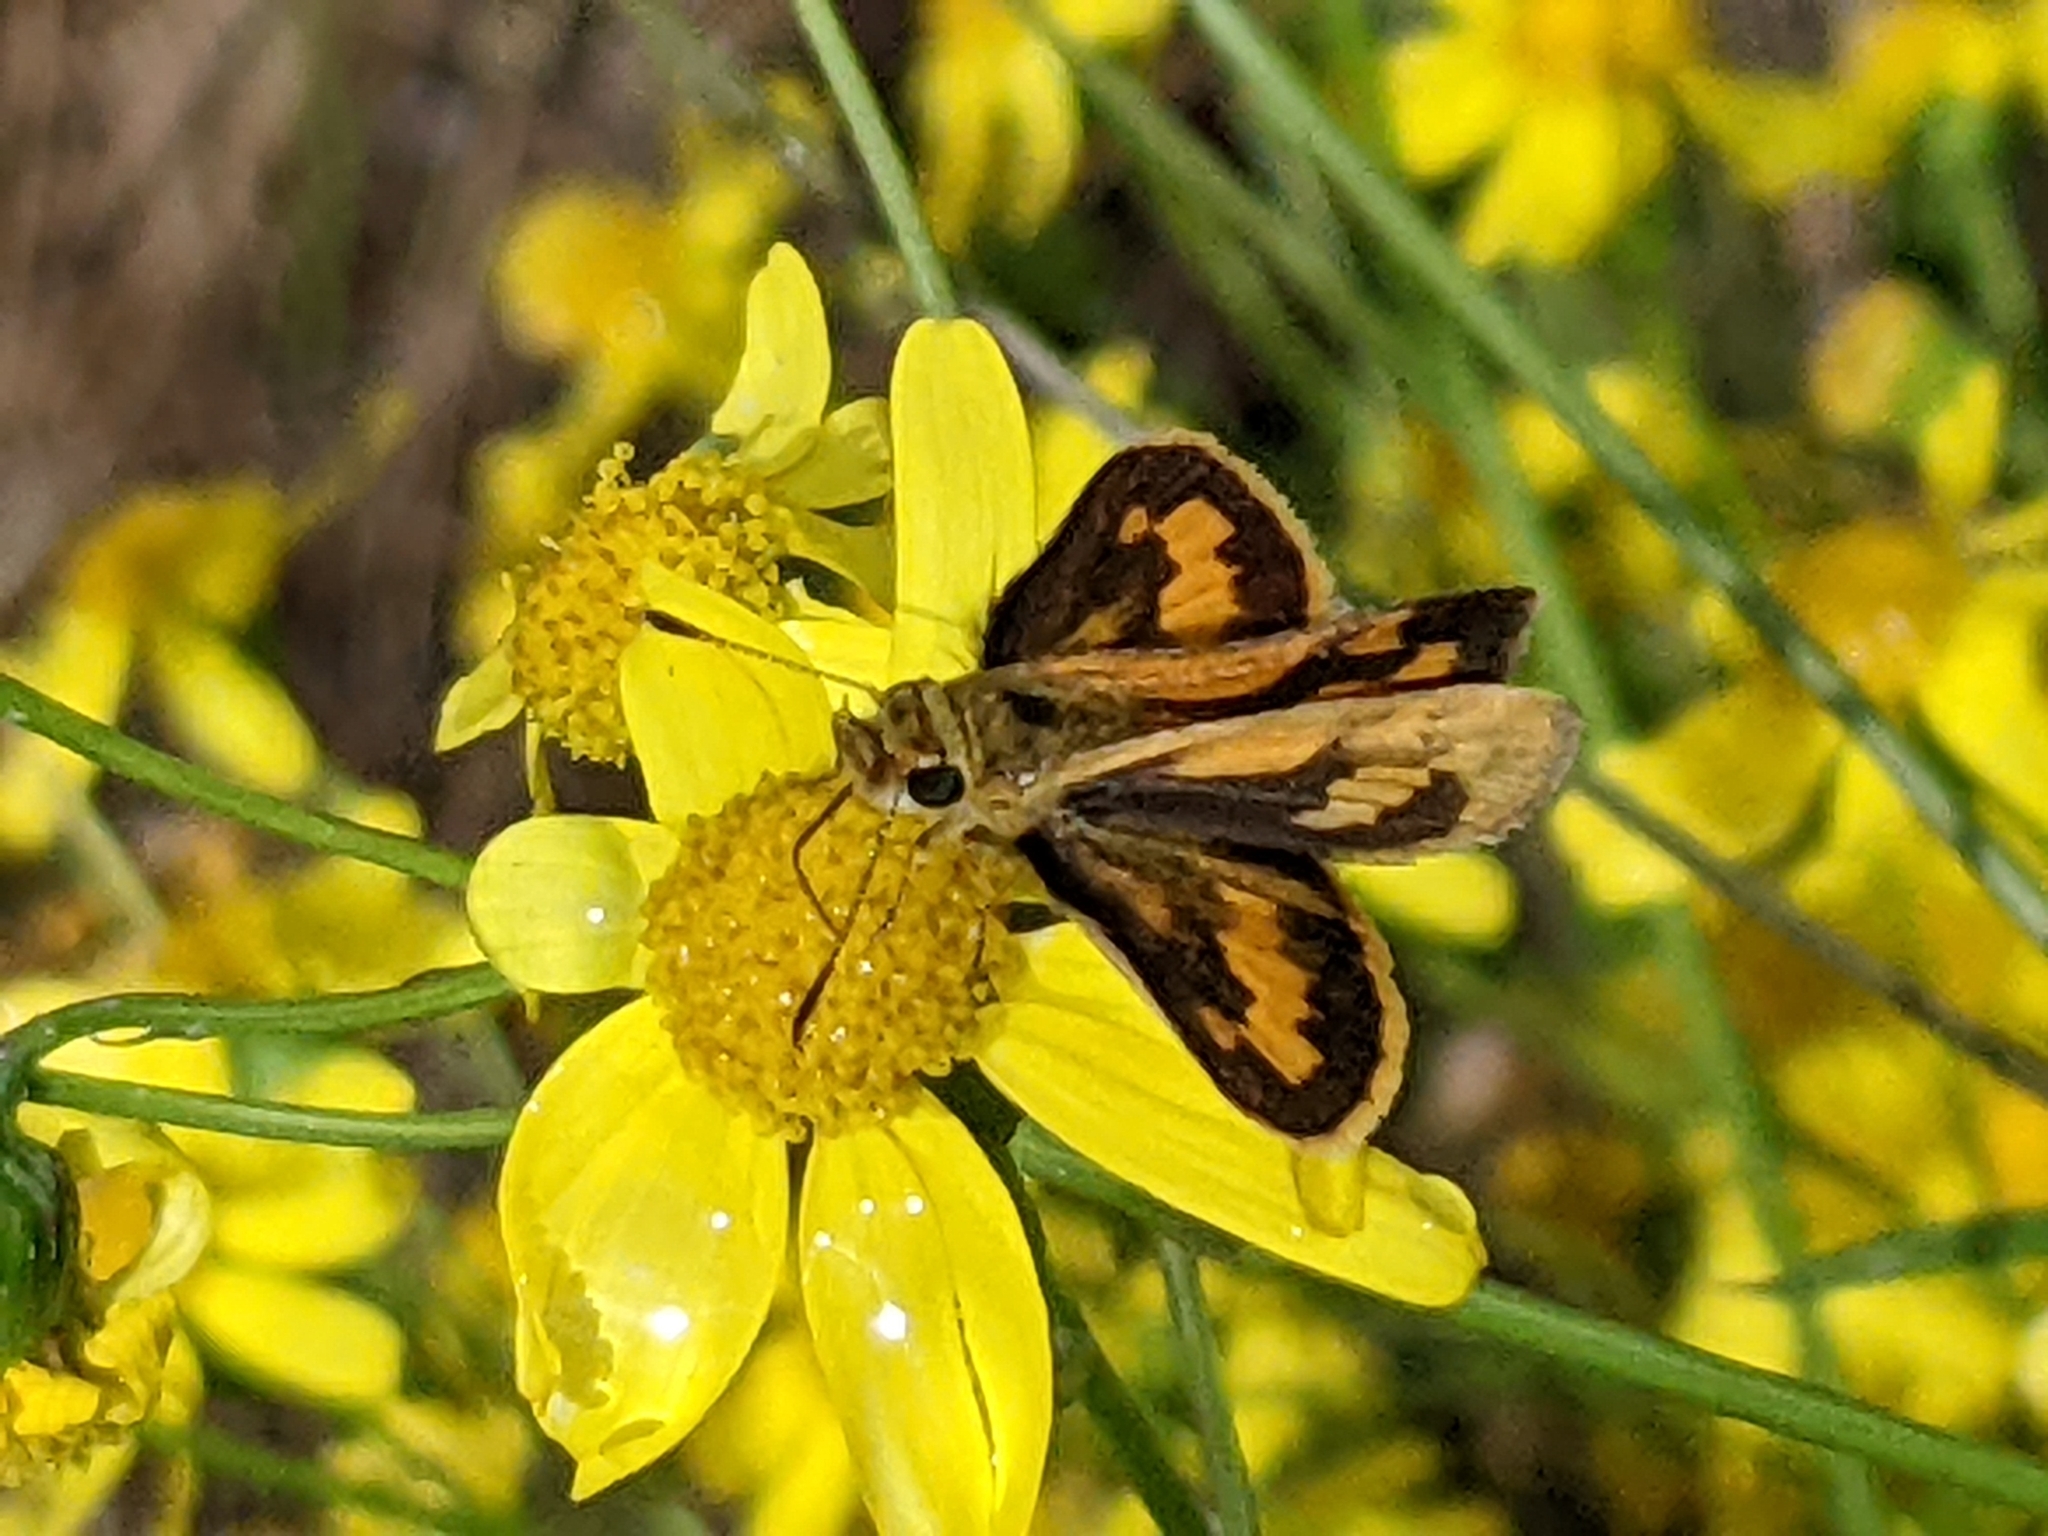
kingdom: Animalia
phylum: Arthropoda
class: Insecta
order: Lepidoptera
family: Hesperiidae
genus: Ocybadistes
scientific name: Ocybadistes walkeri
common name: Yellow-banded dart
